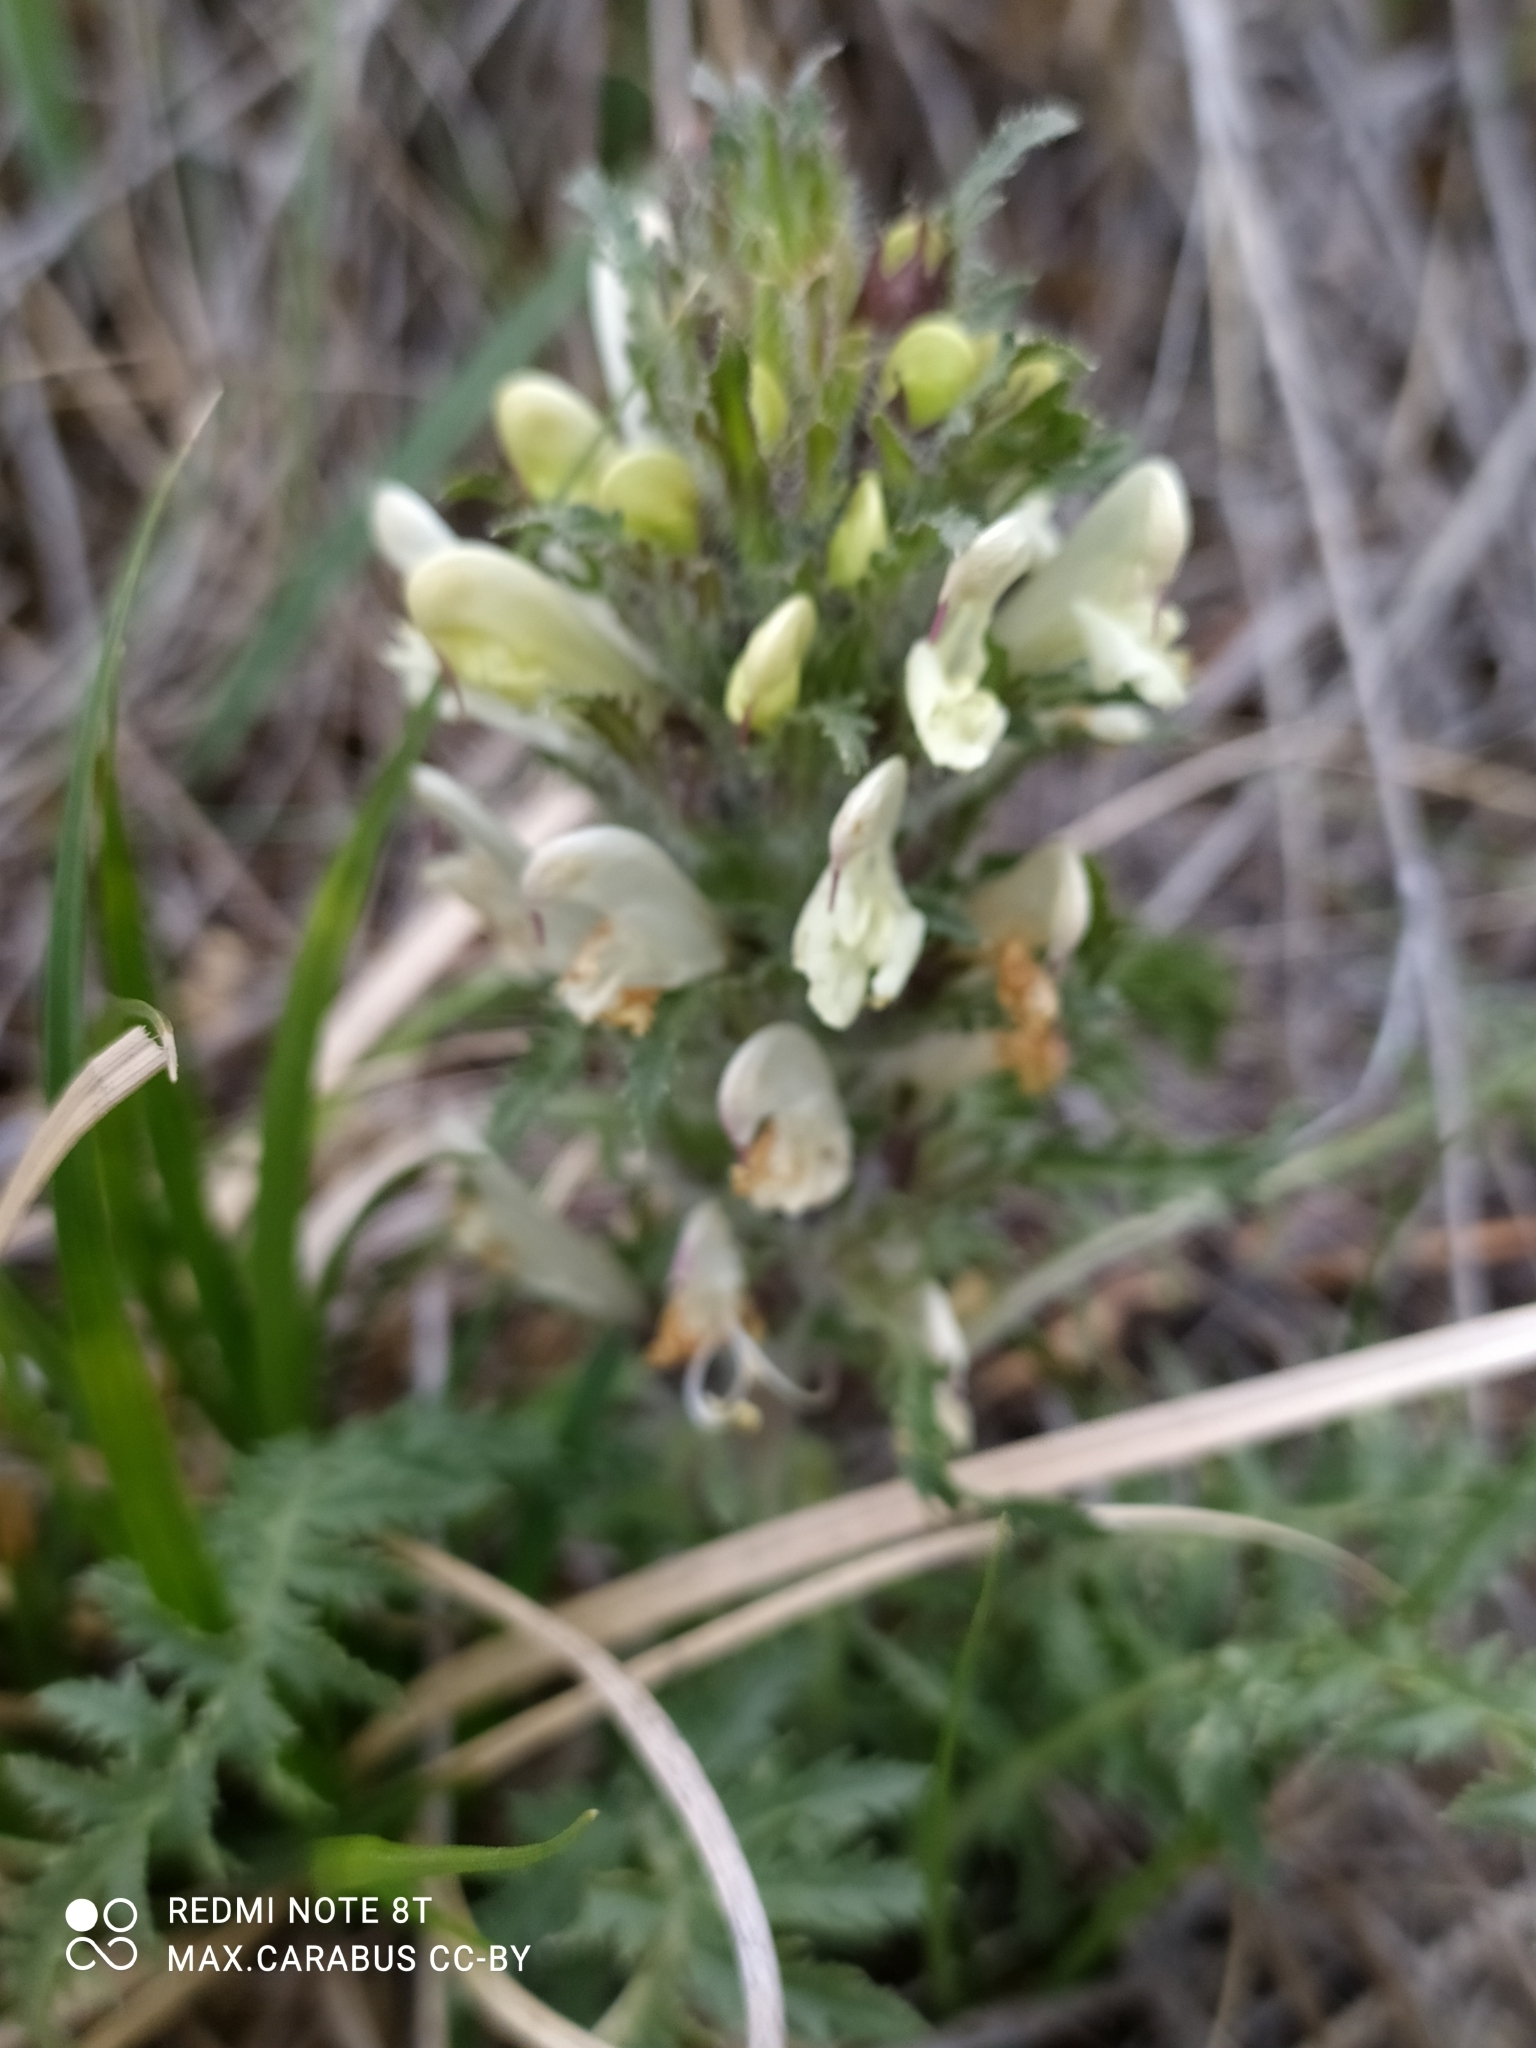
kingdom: Plantae
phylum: Tracheophyta
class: Magnoliopsida
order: Lamiales
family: Orobanchaceae
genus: Pedicularis
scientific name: Pedicularis physocalyx
